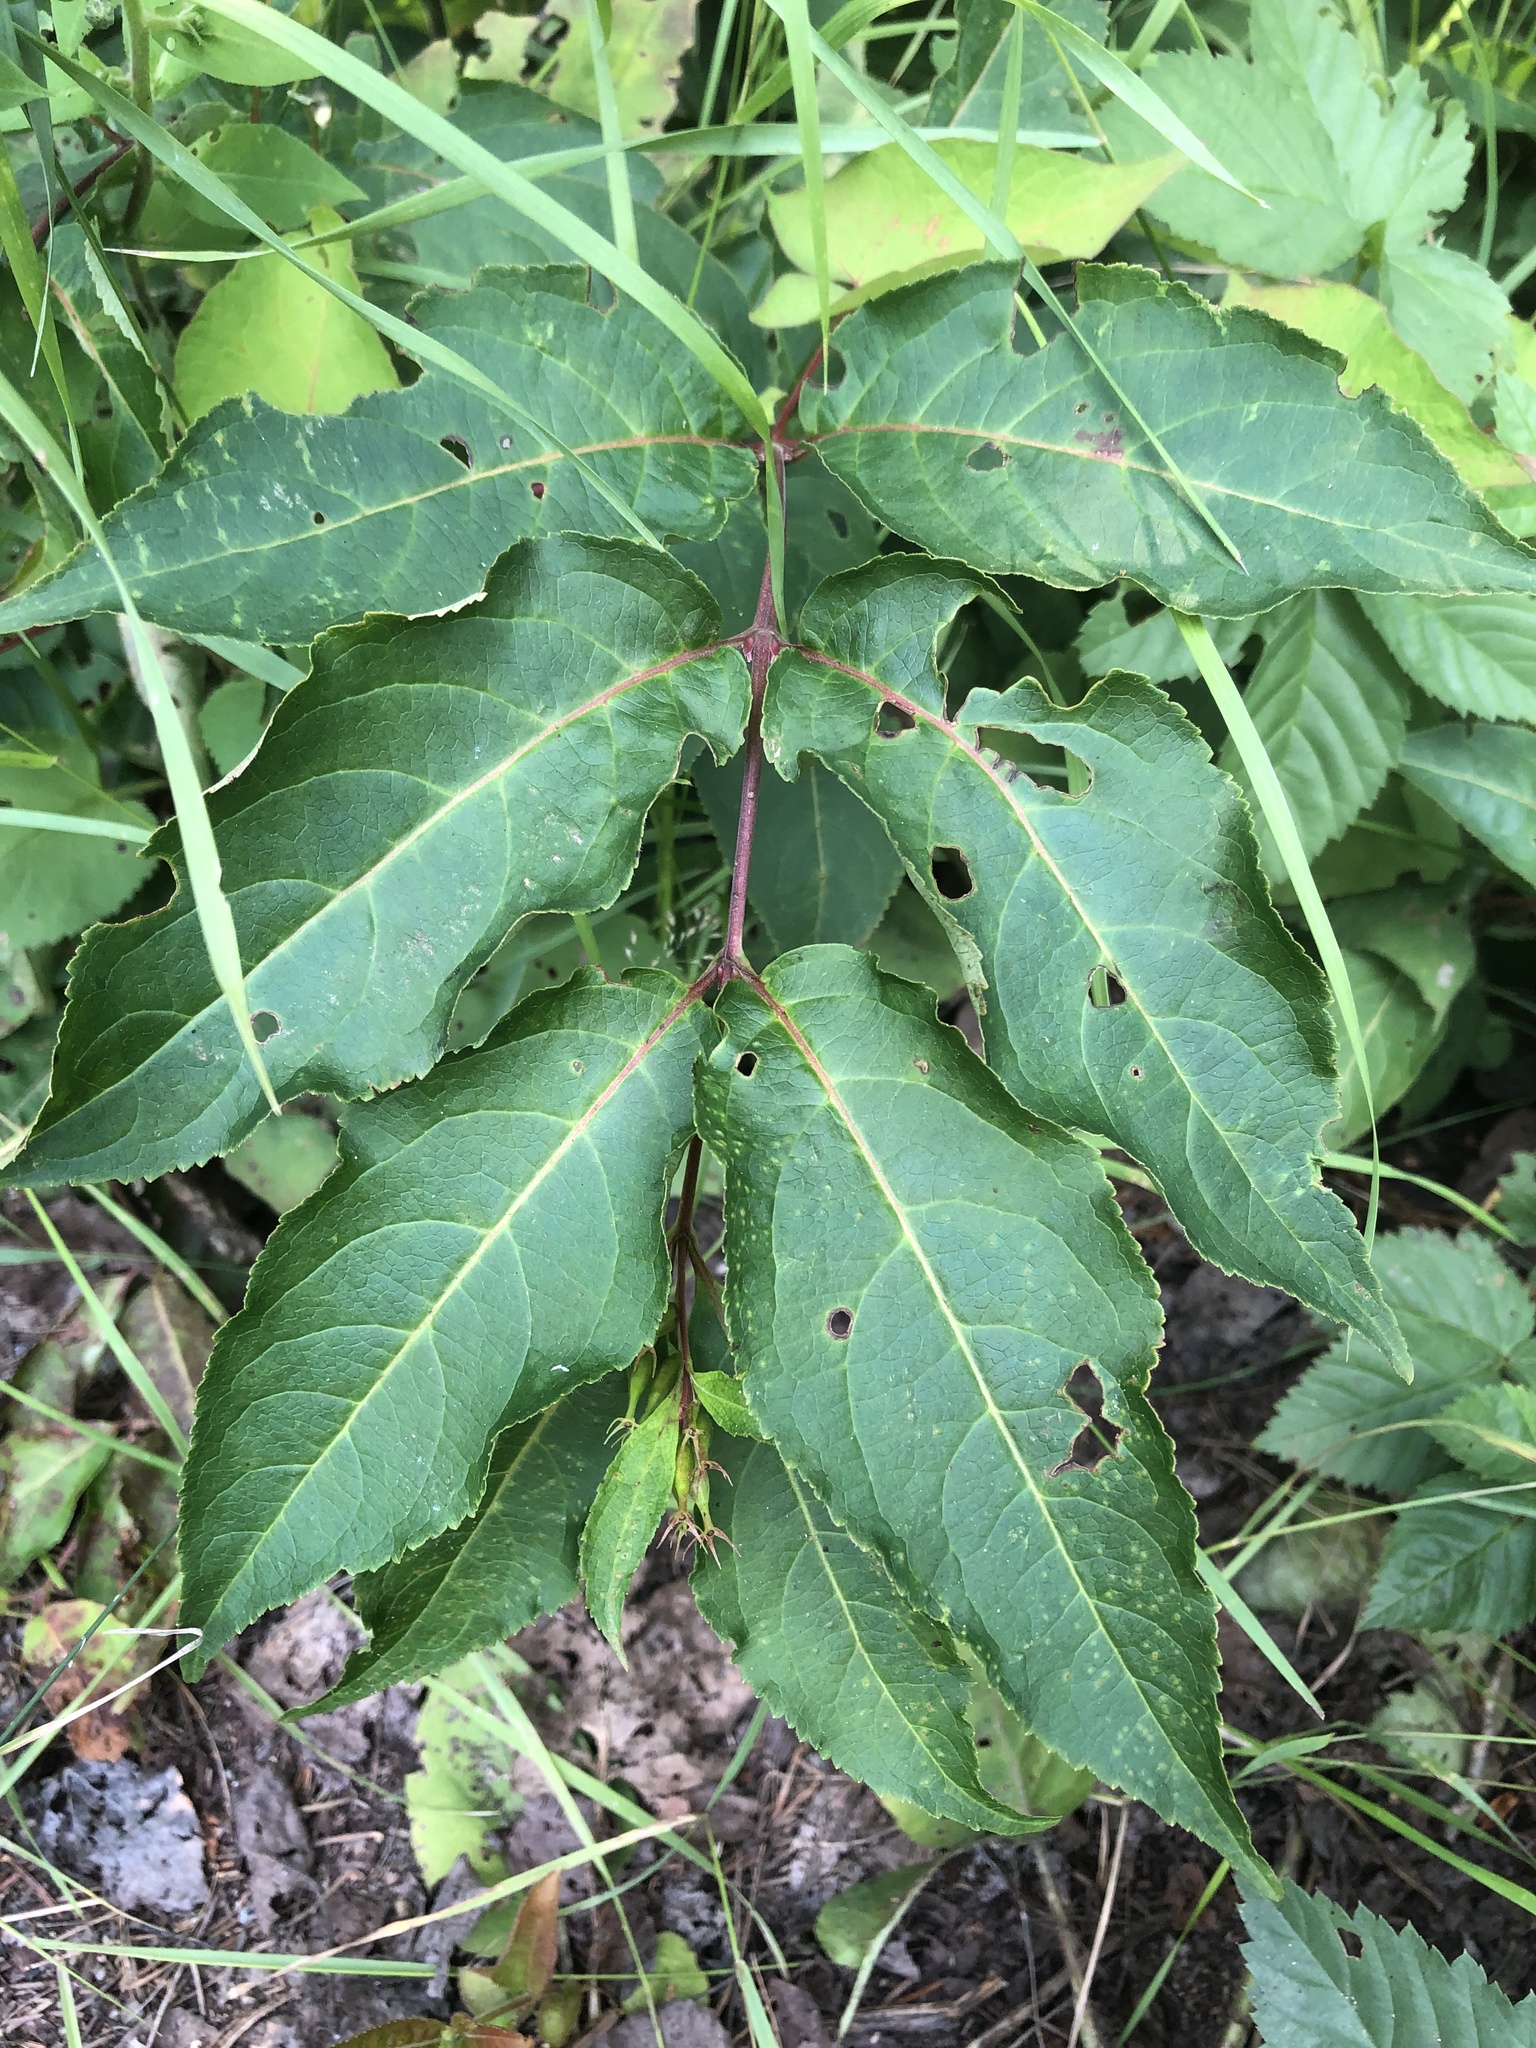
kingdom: Plantae
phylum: Tracheophyta
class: Magnoliopsida
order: Dipsacales
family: Caprifoliaceae
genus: Diervilla
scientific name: Diervilla lonicera
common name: Bush-honeysuckle
